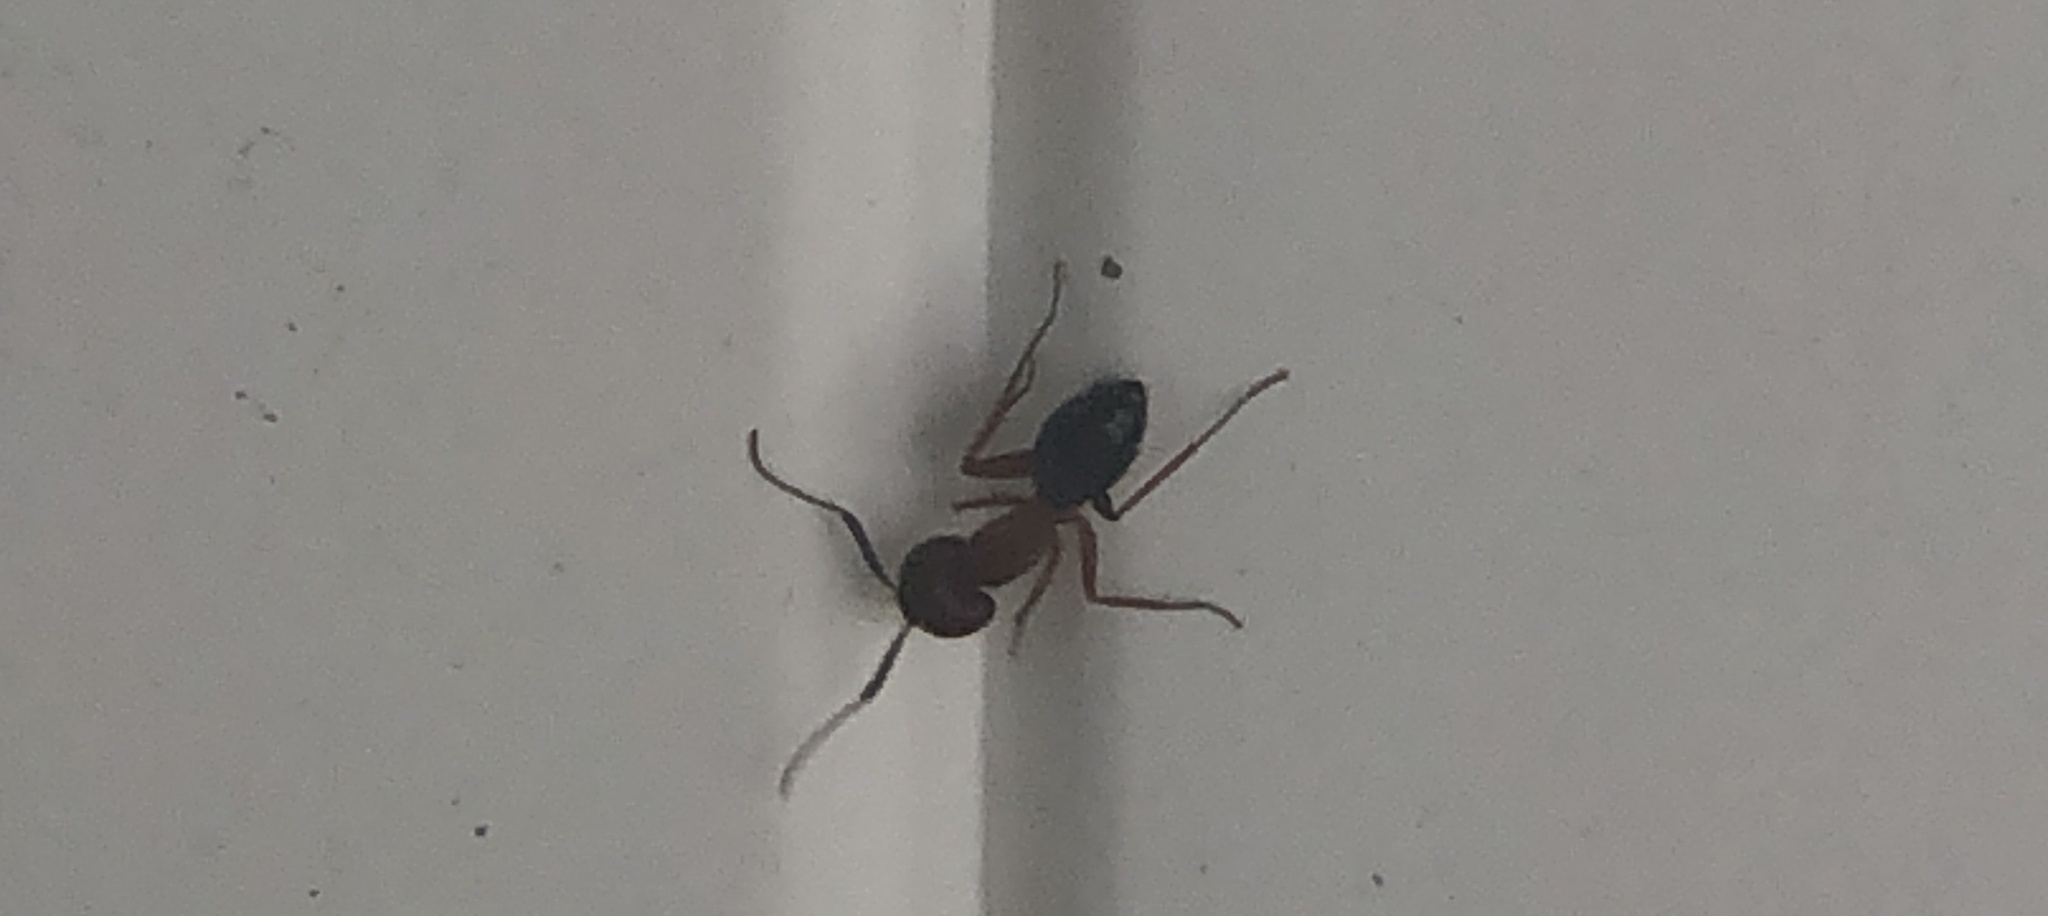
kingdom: Animalia
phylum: Arthropoda
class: Insecta
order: Hymenoptera
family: Formicidae
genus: Camponotus
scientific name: Camponotus floridanus
